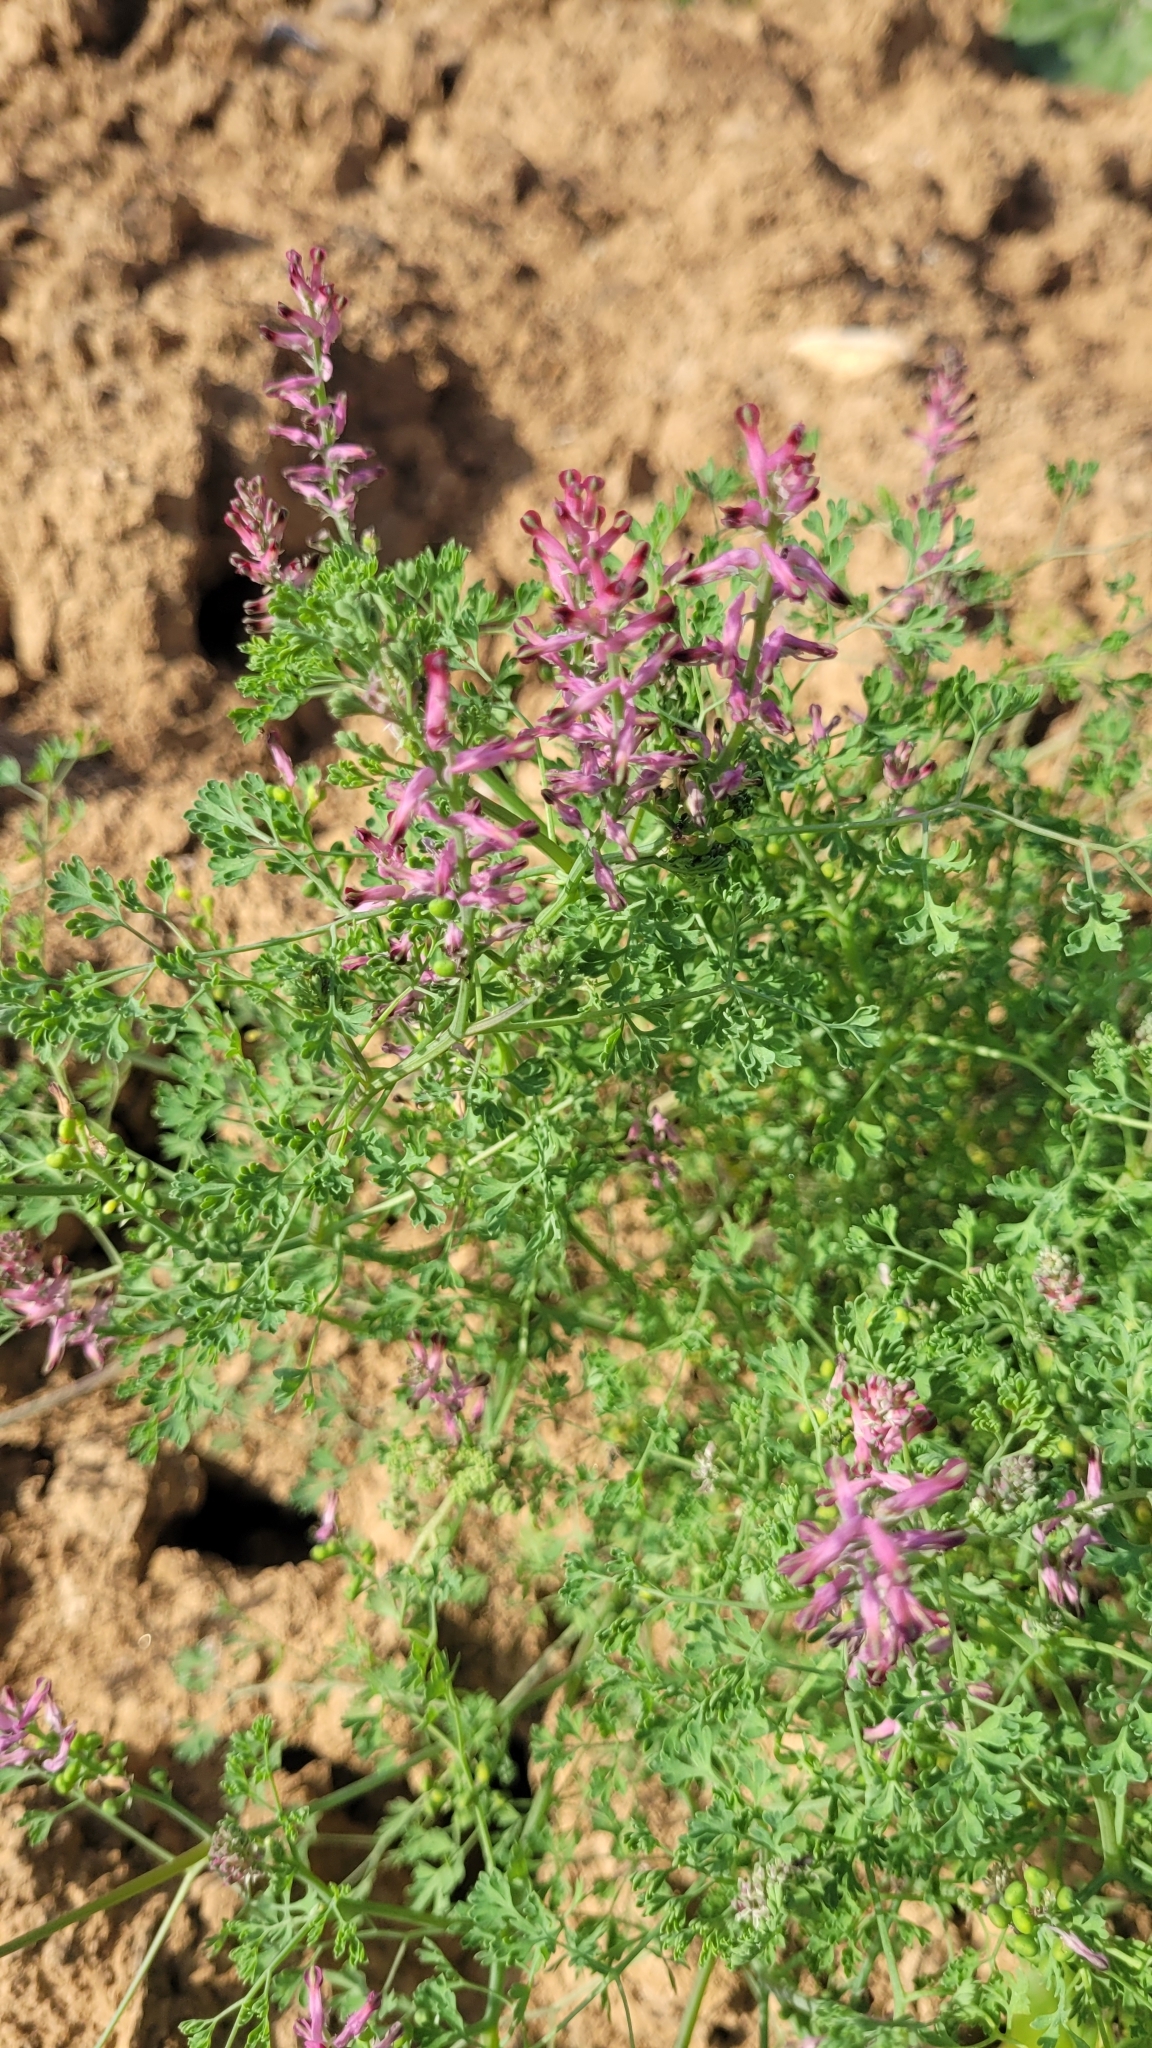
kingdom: Plantae
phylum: Tracheophyta
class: Magnoliopsida
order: Ranunculales
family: Papaveraceae
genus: Fumaria
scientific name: Fumaria officinalis
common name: Common fumitory
